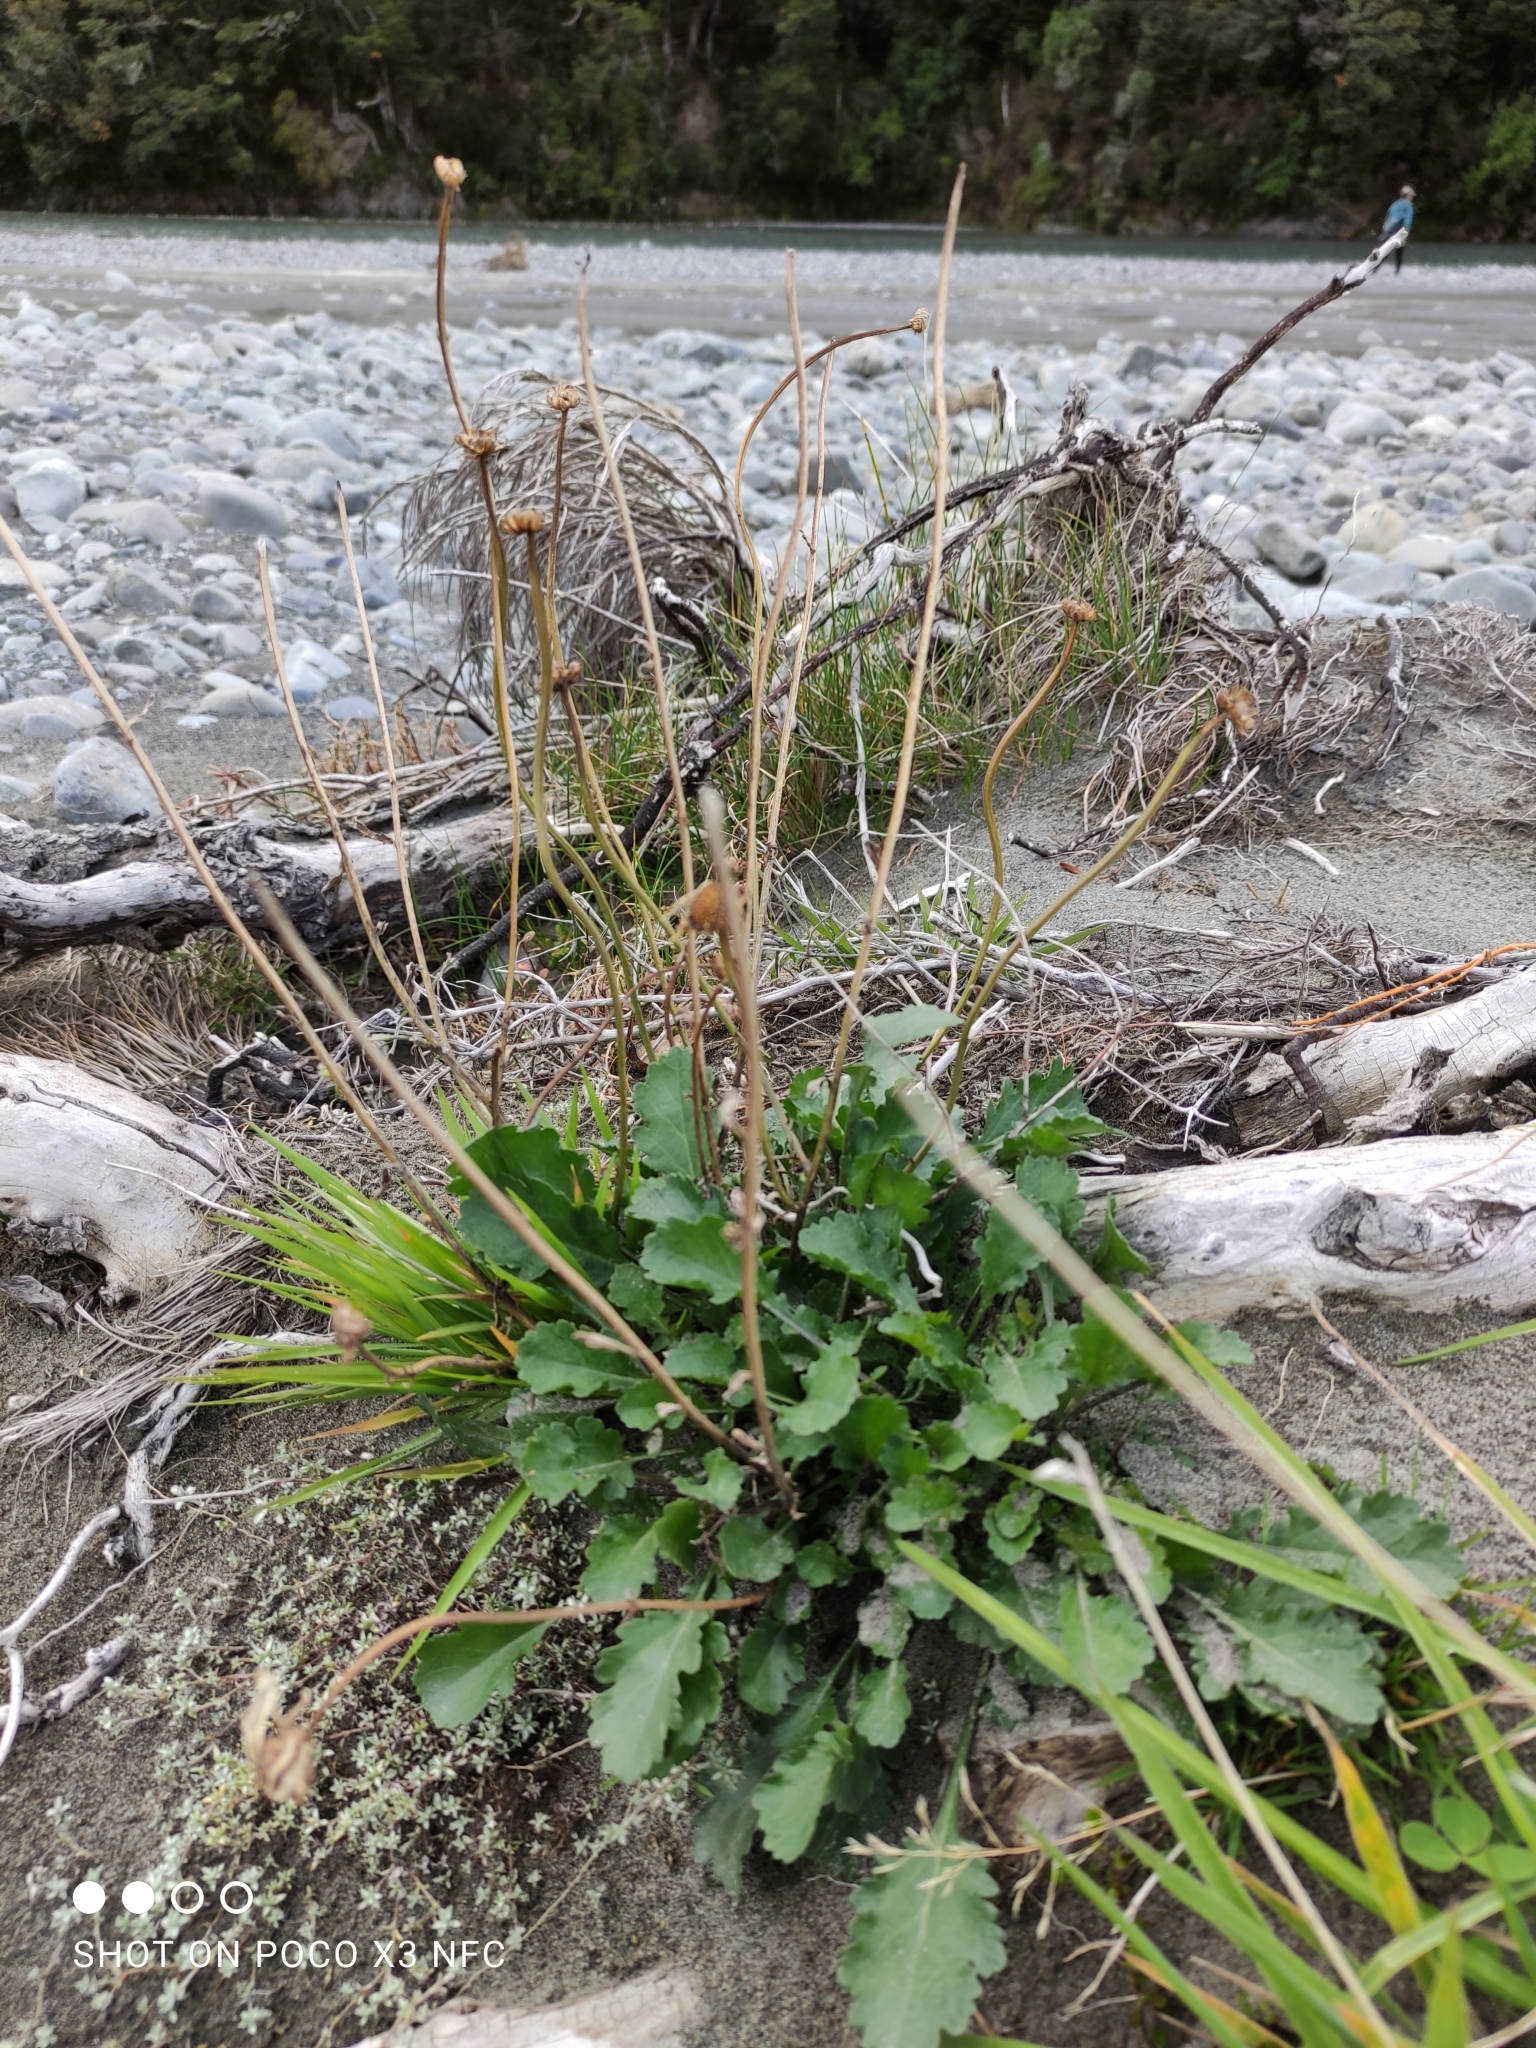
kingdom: Plantae
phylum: Tracheophyta
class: Magnoliopsida
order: Asterales
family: Asteraceae
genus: Leucanthemum
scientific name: Leucanthemum vulgare
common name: Oxeye daisy
